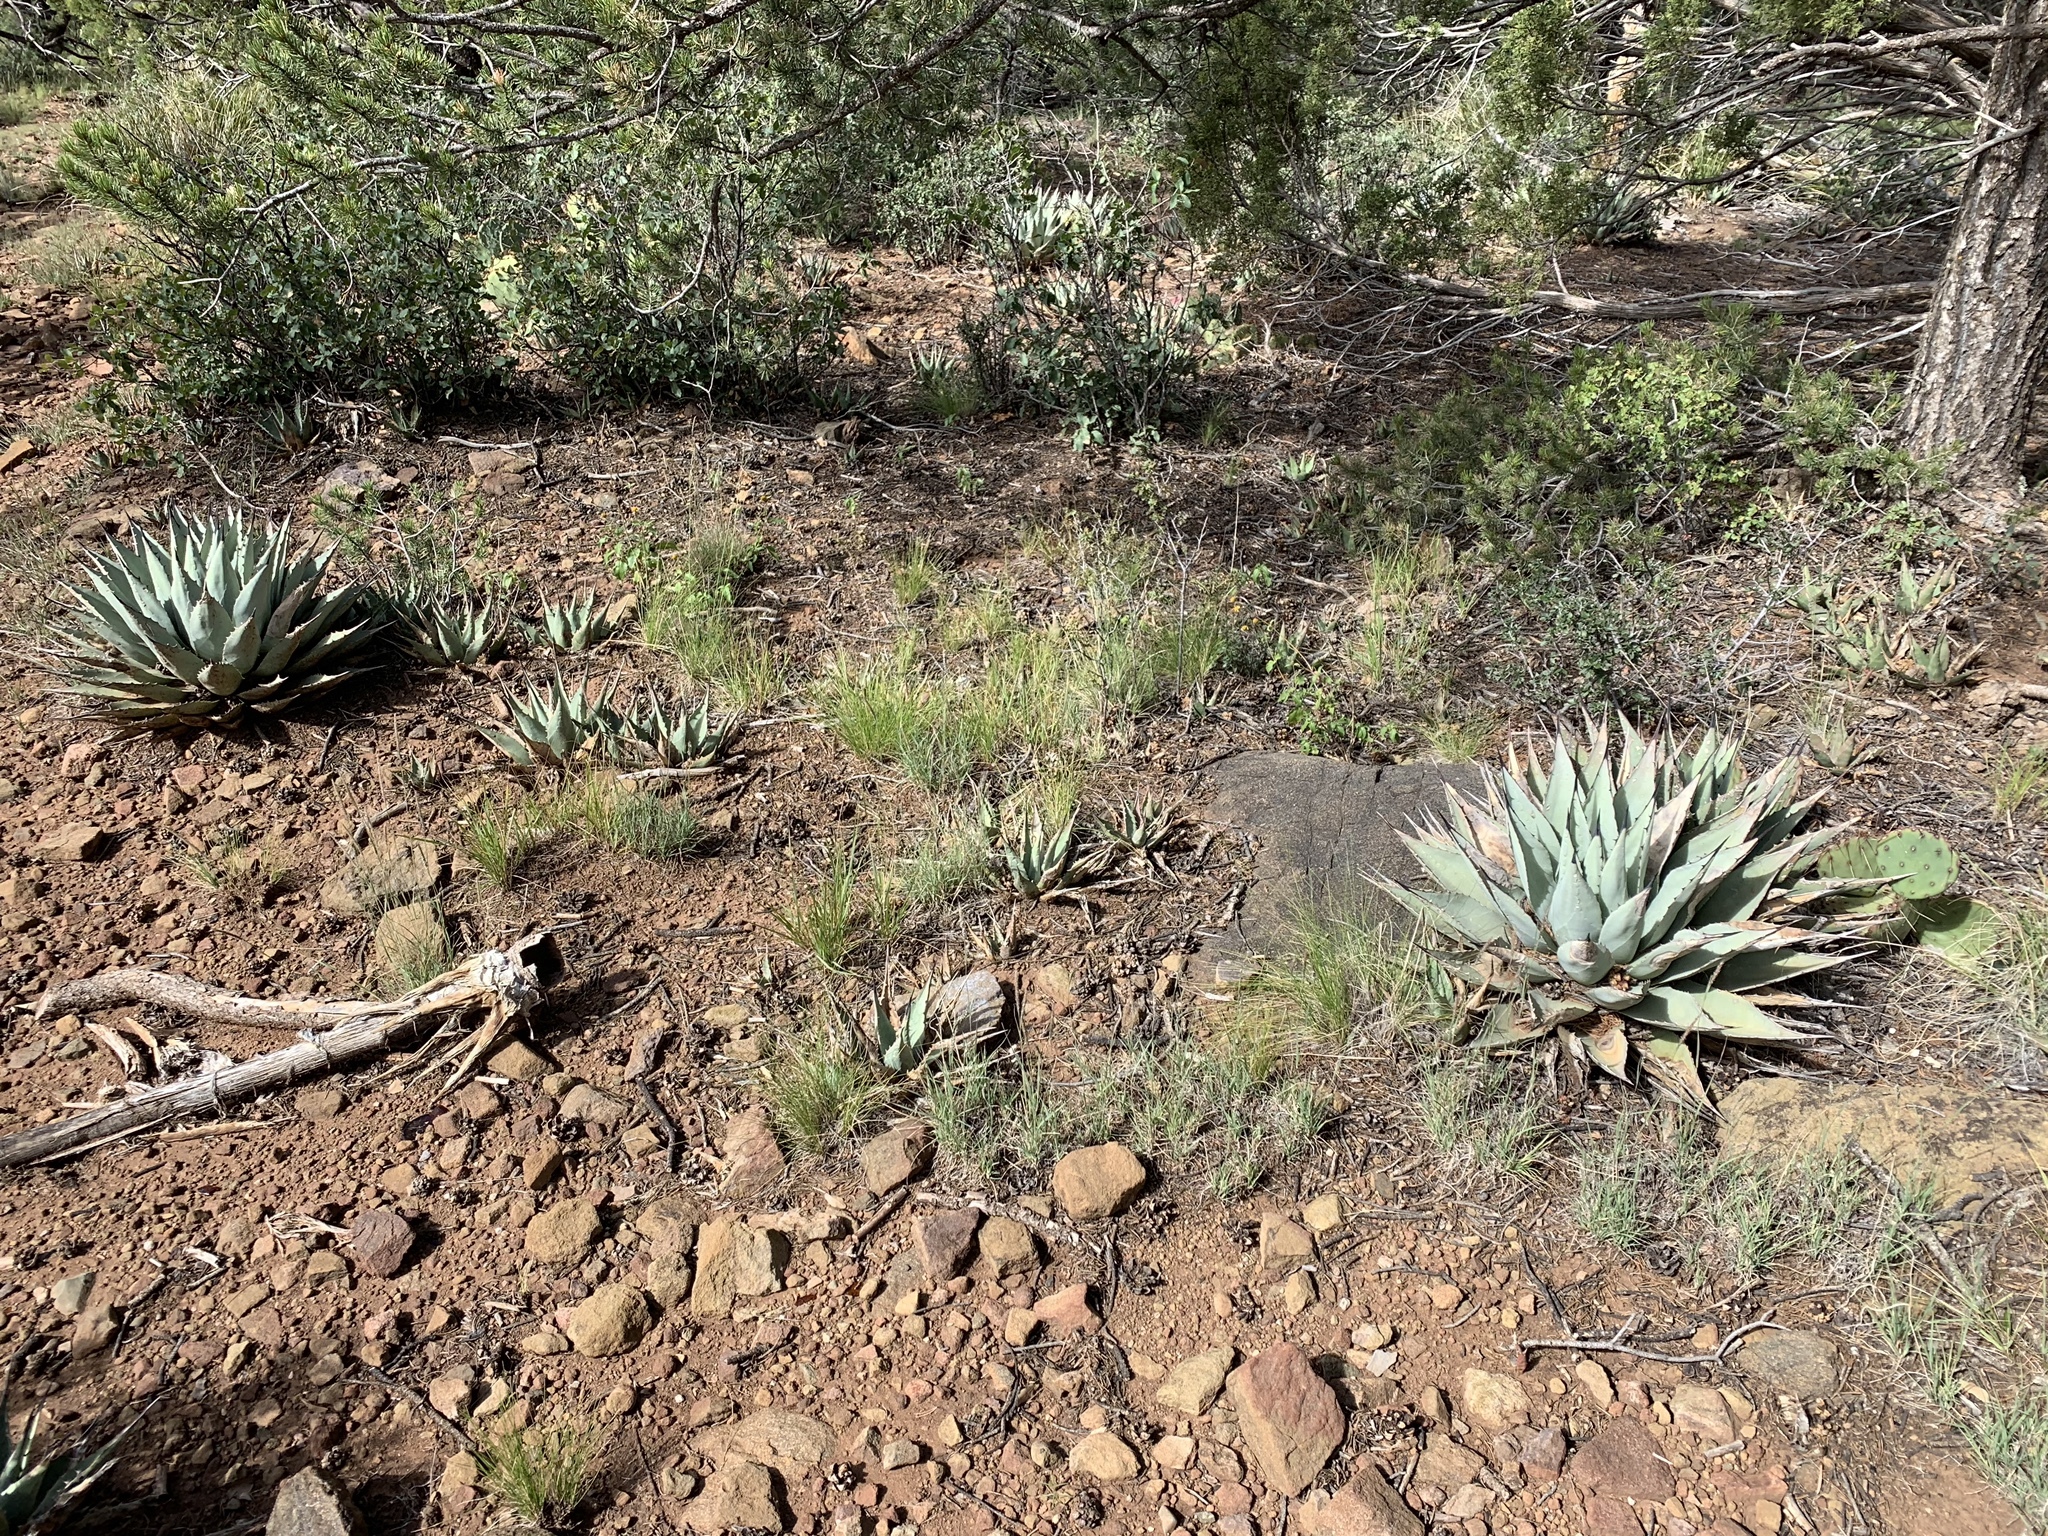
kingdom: Plantae
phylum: Tracheophyta
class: Liliopsida
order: Asparagales
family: Asparagaceae
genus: Agave
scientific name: Agave parryi
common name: Parry's agave
